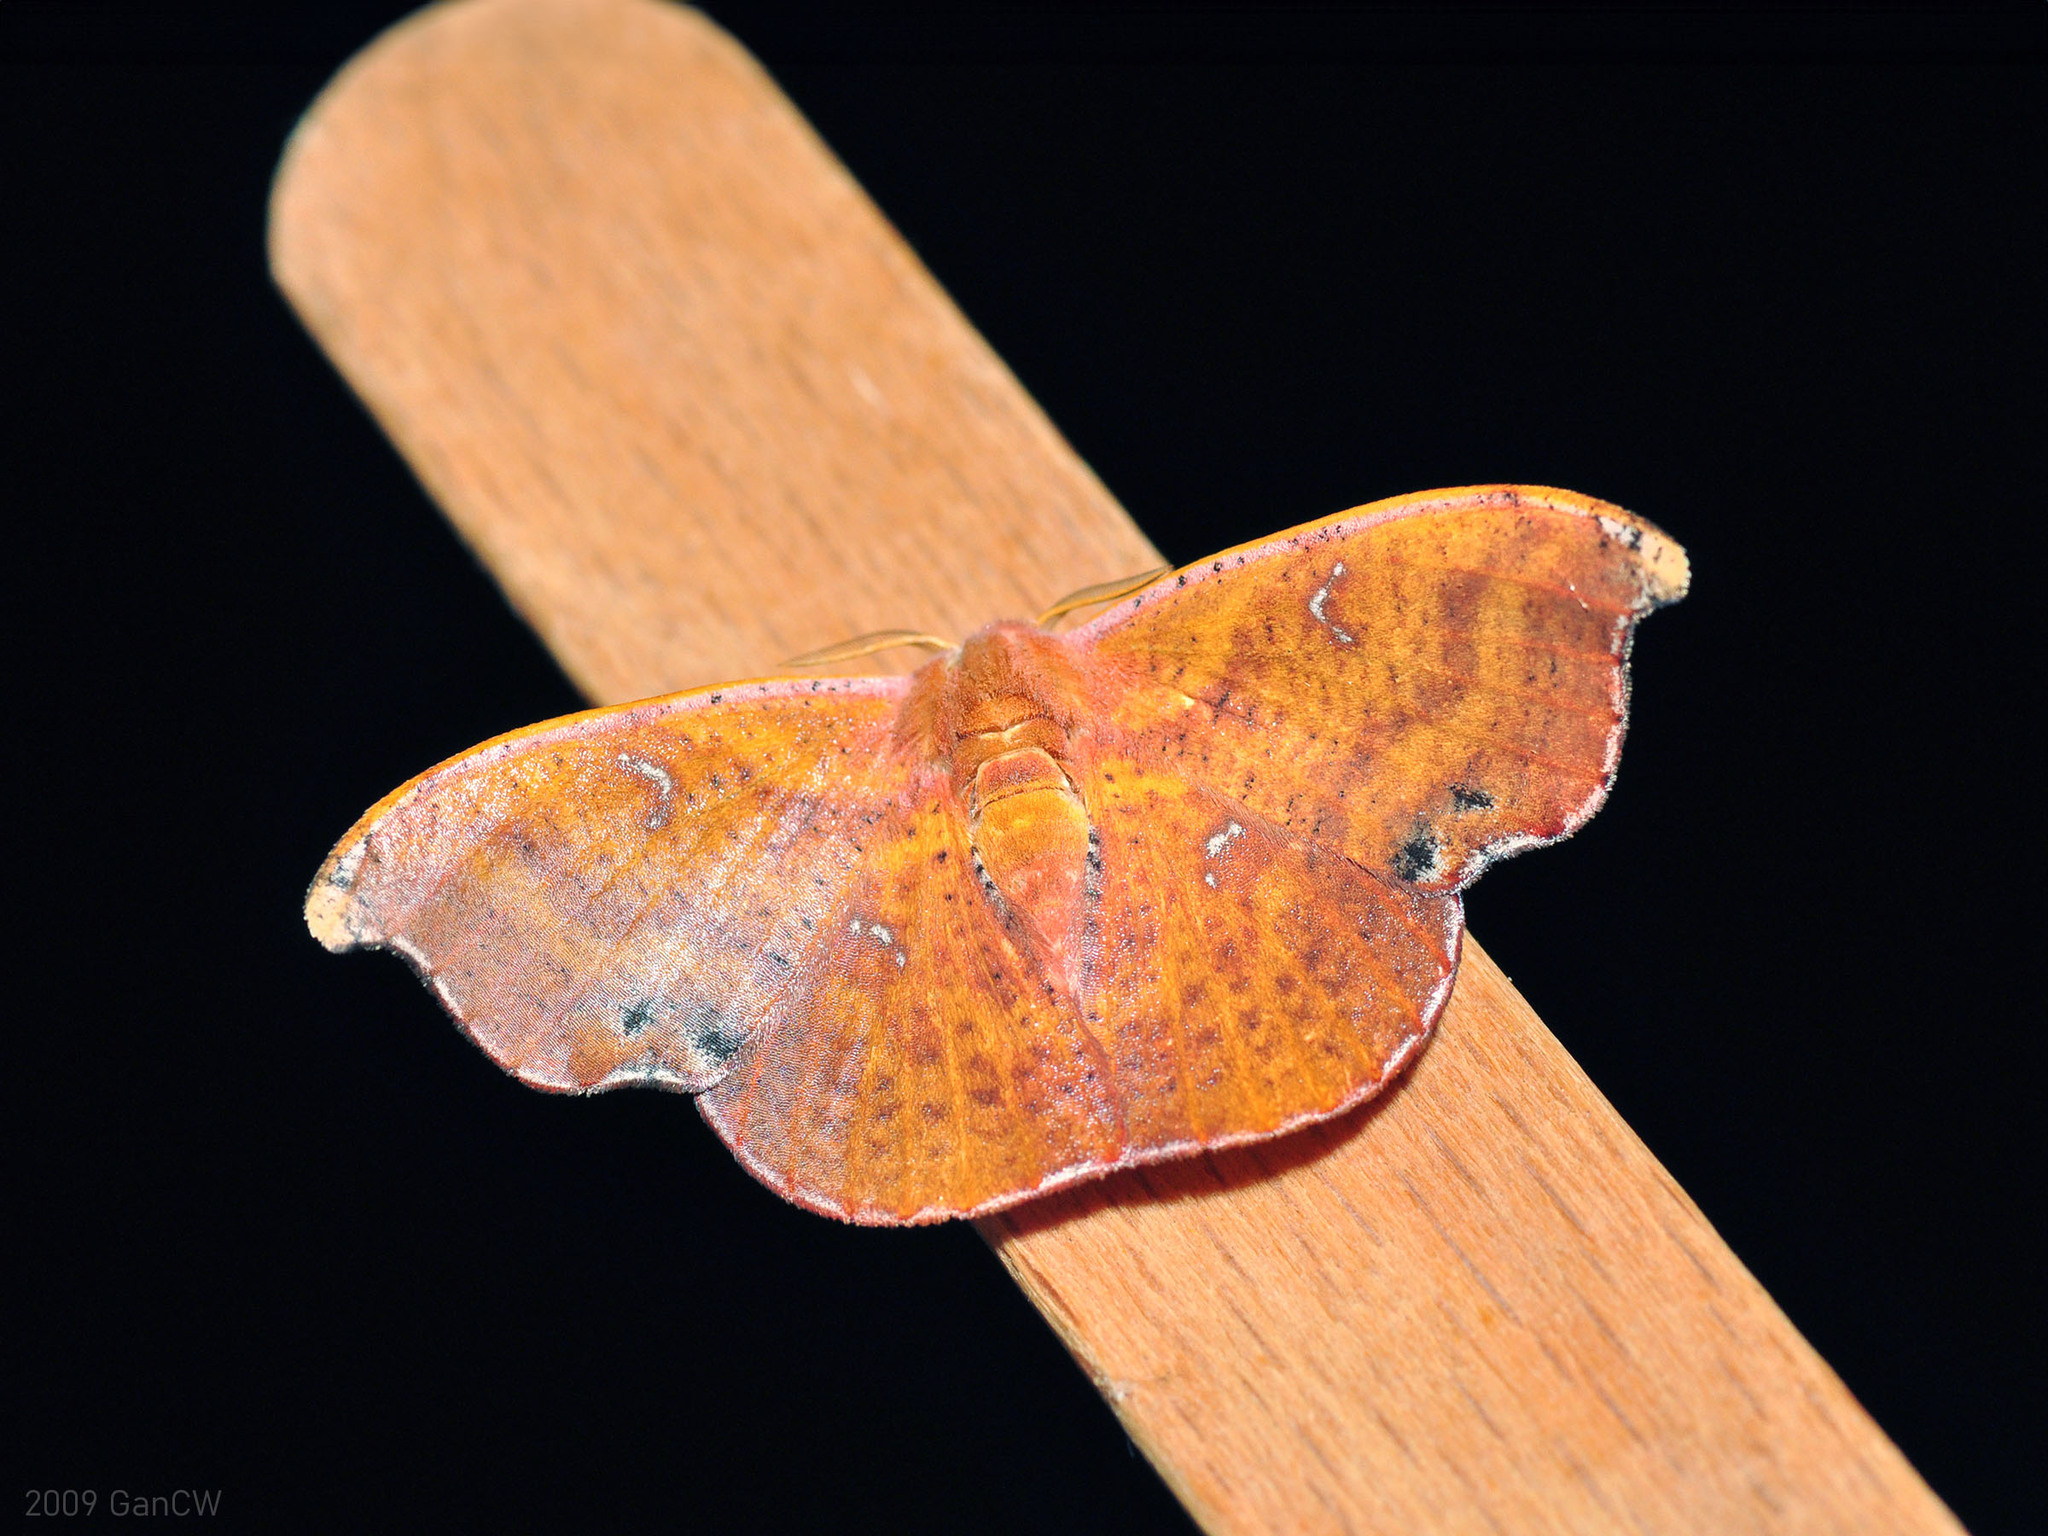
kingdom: Animalia
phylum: Arthropoda
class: Insecta
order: Lepidoptera
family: Drepanidae
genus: Oreta
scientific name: Oreta fulgens
